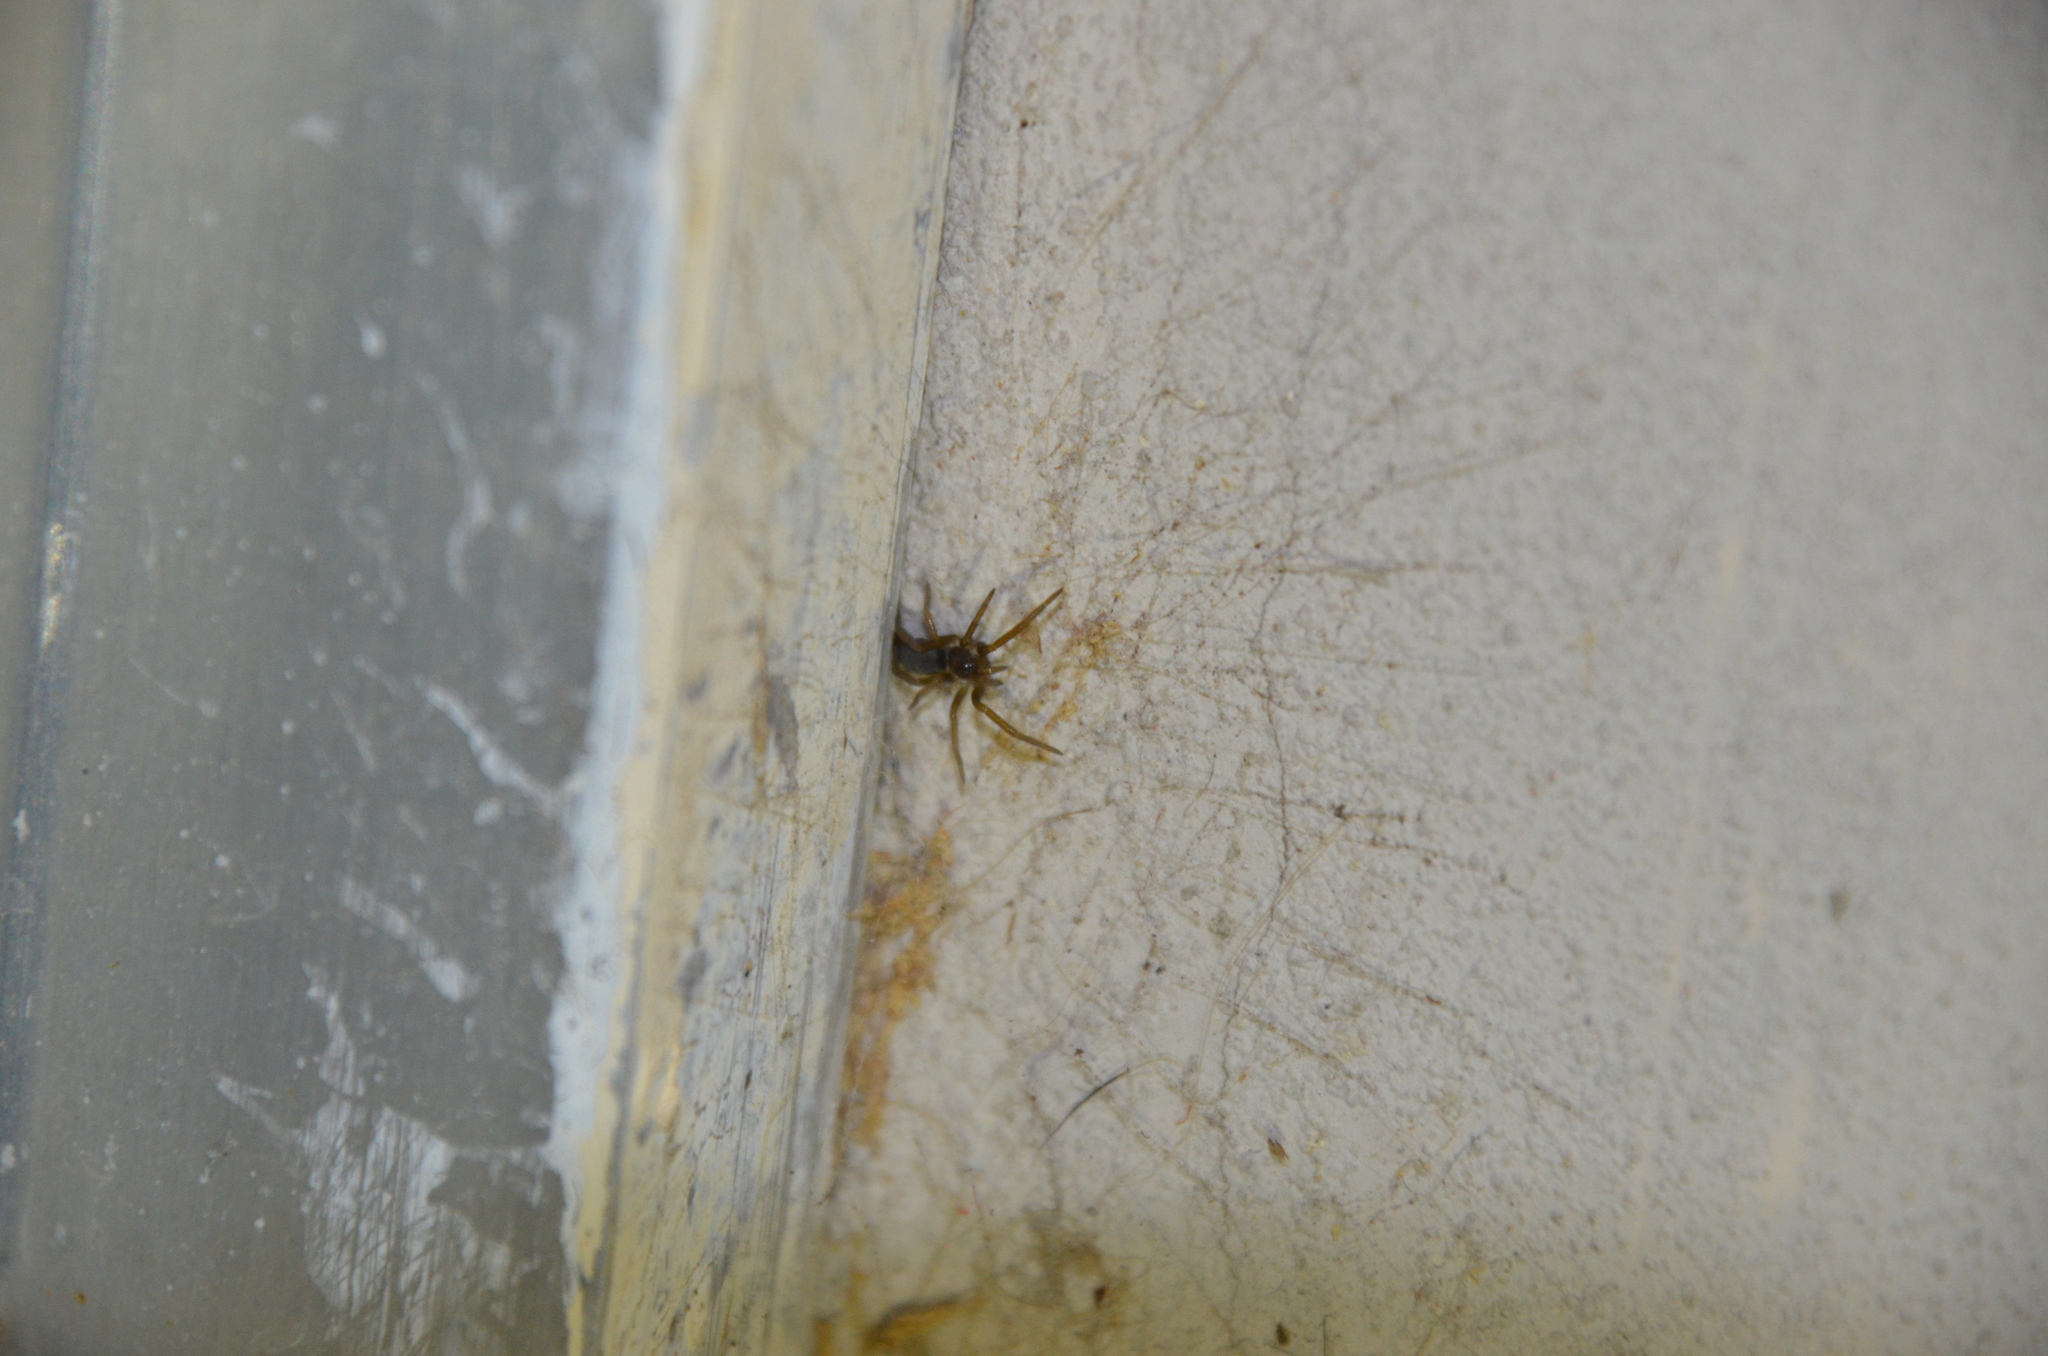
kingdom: Animalia
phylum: Arthropoda
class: Arachnida
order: Araneae
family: Filistatidae
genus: Kukulcania
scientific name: Kukulcania hibernalis
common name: Crevice weaver
